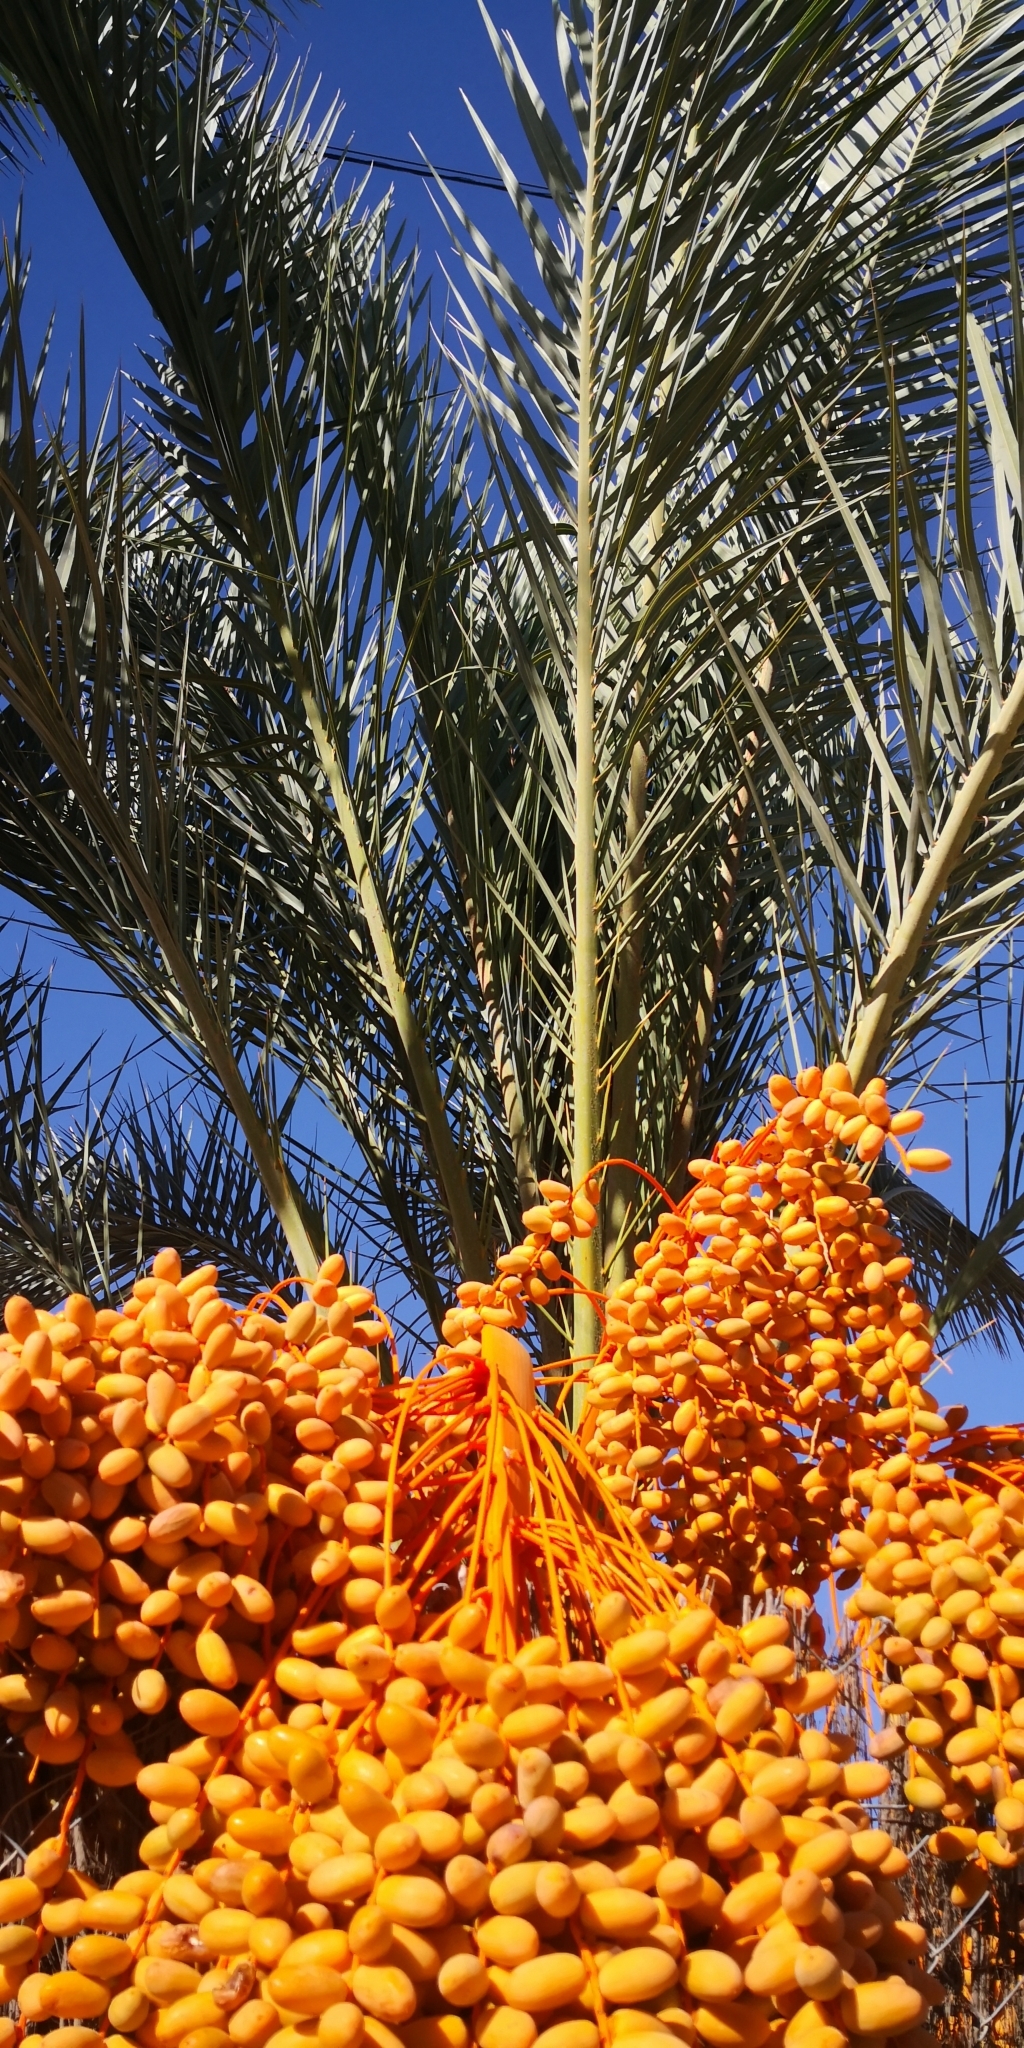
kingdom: Plantae
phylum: Tracheophyta
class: Liliopsida
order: Arecales
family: Arecaceae
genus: Phoenix
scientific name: Phoenix dactylifera
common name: Date palm
